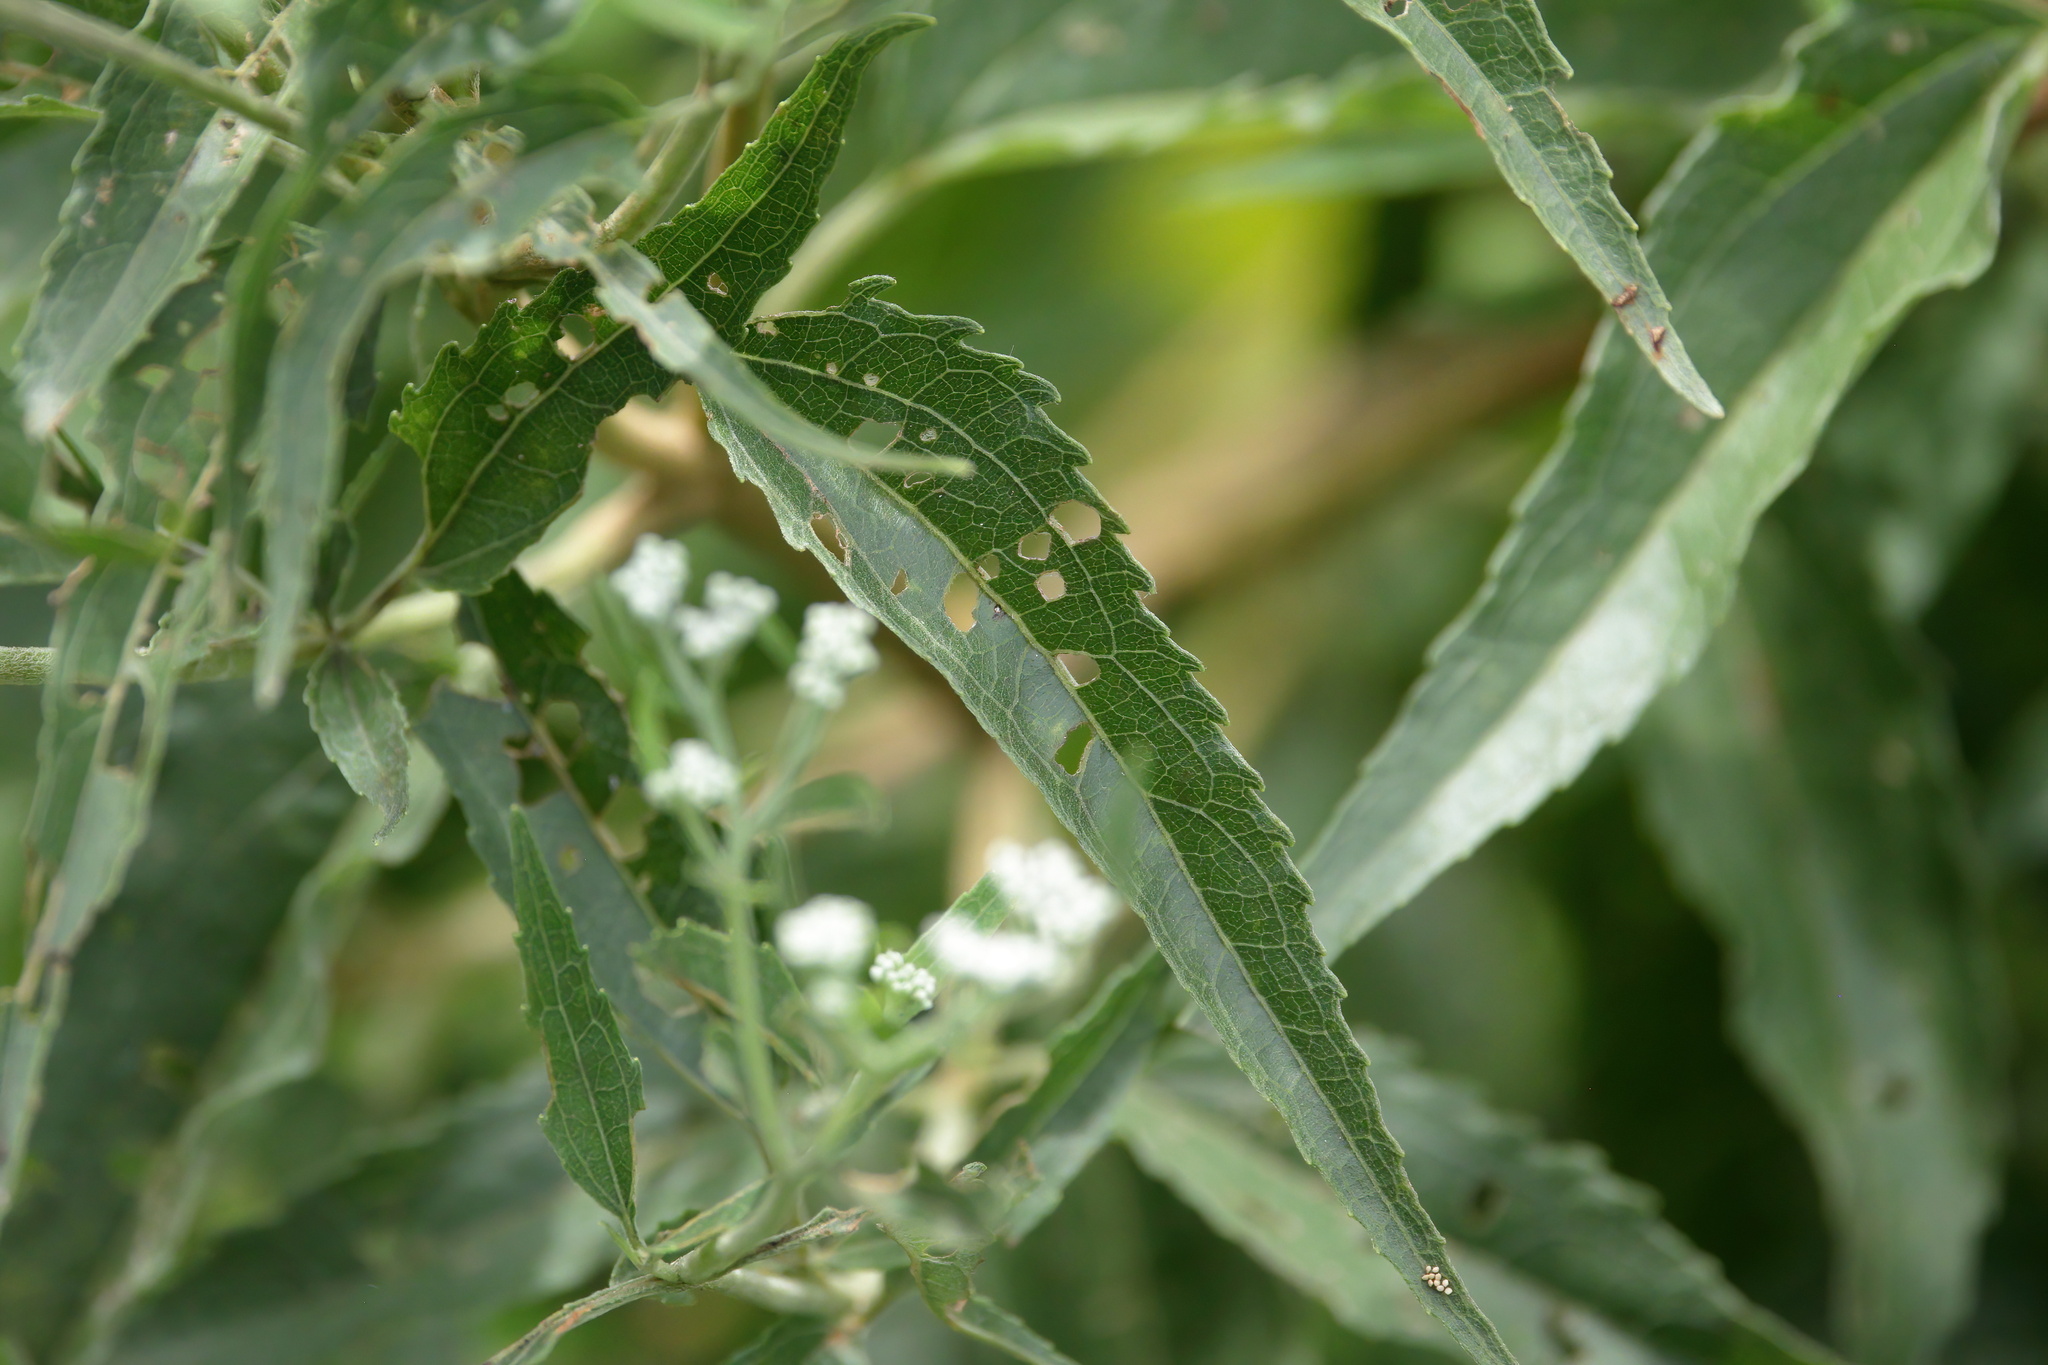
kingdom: Plantae
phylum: Tracheophyta
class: Magnoliopsida
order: Asterales
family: Asteraceae
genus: Eupatorium
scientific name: Eupatorium serotinum
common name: Late boneset
